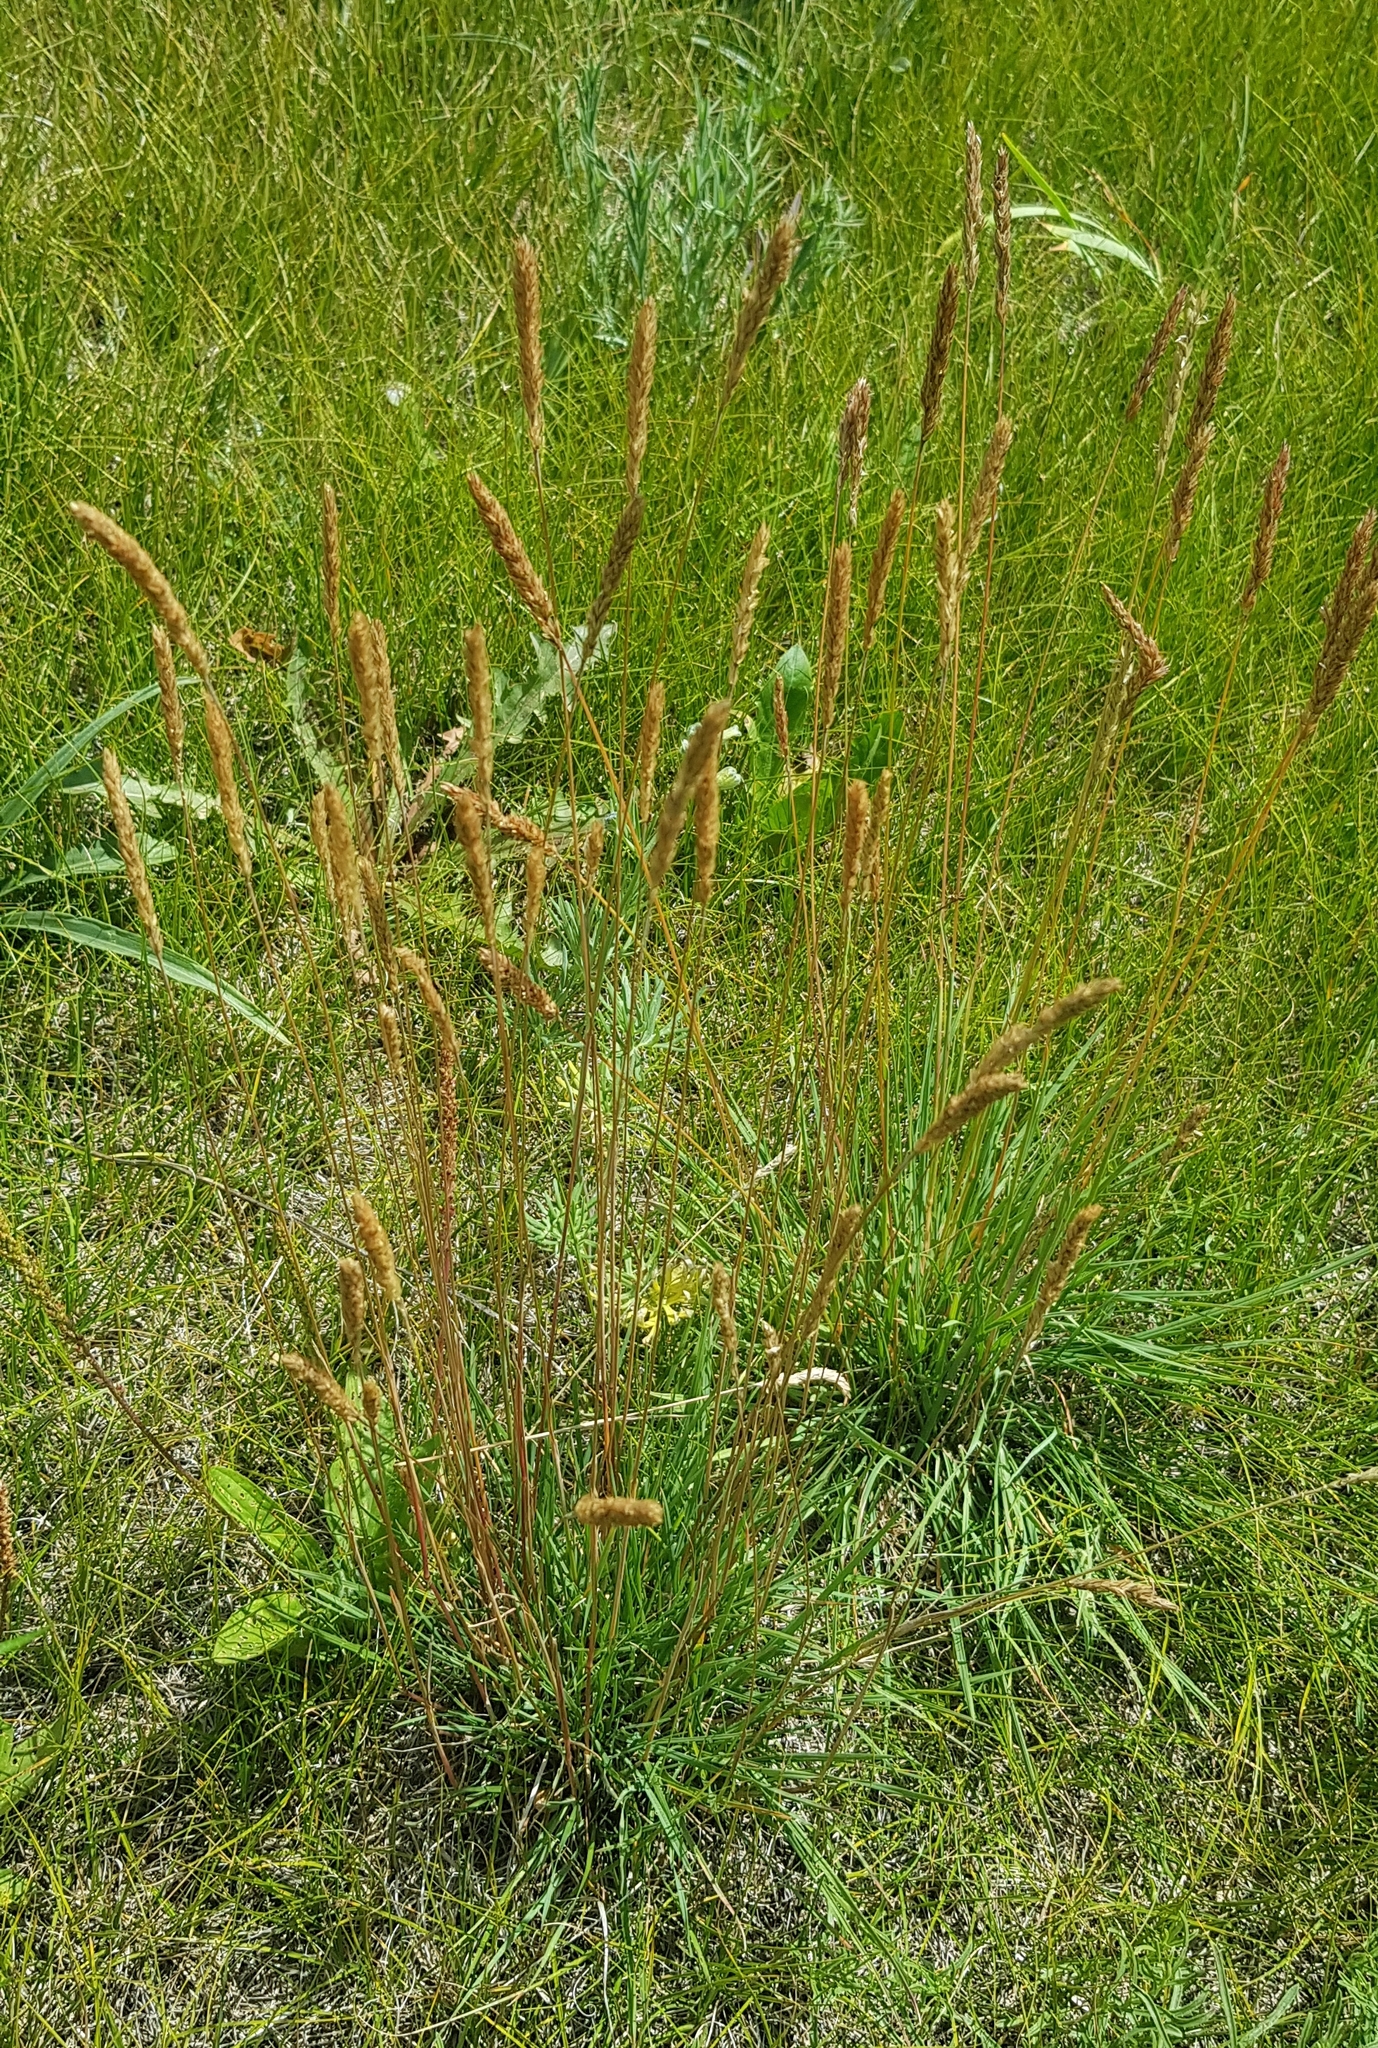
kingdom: Plantae
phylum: Tracheophyta
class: Liliopsida
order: Poales
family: Poaceae
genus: Koeleria
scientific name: Koeleria macrantha
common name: Crested hair-grass
